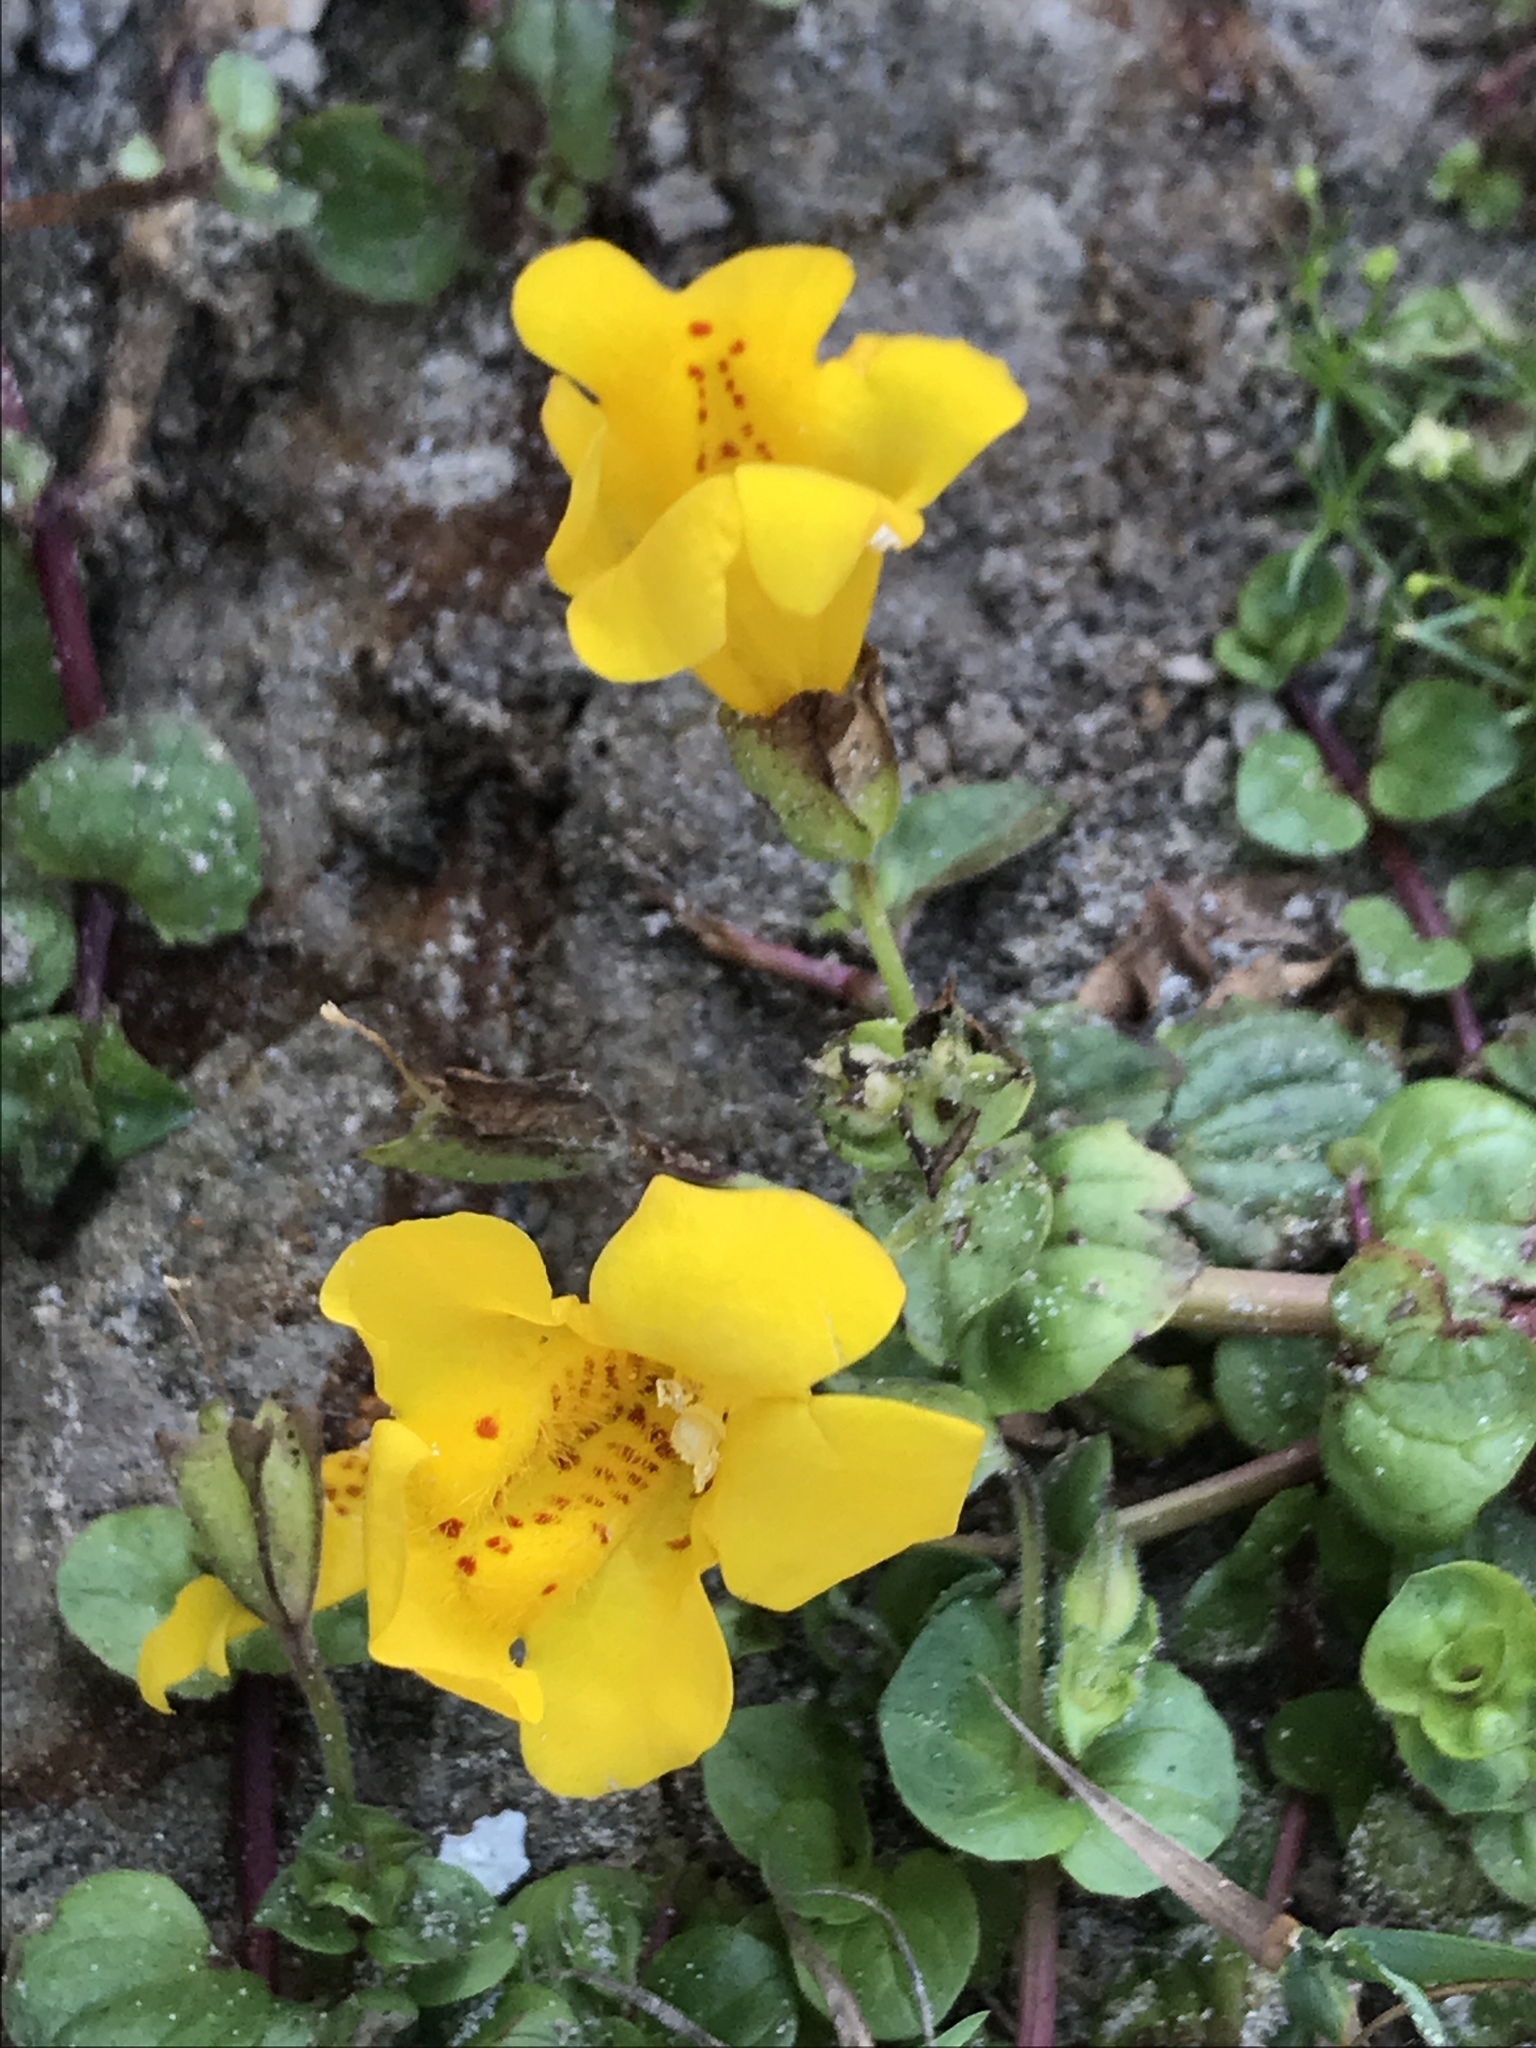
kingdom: Plantae
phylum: Tracheophyta
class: Magnoliopsida
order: Lamiales
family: Phrymaceae
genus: Erythranthe
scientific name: Erythranthe grandis
